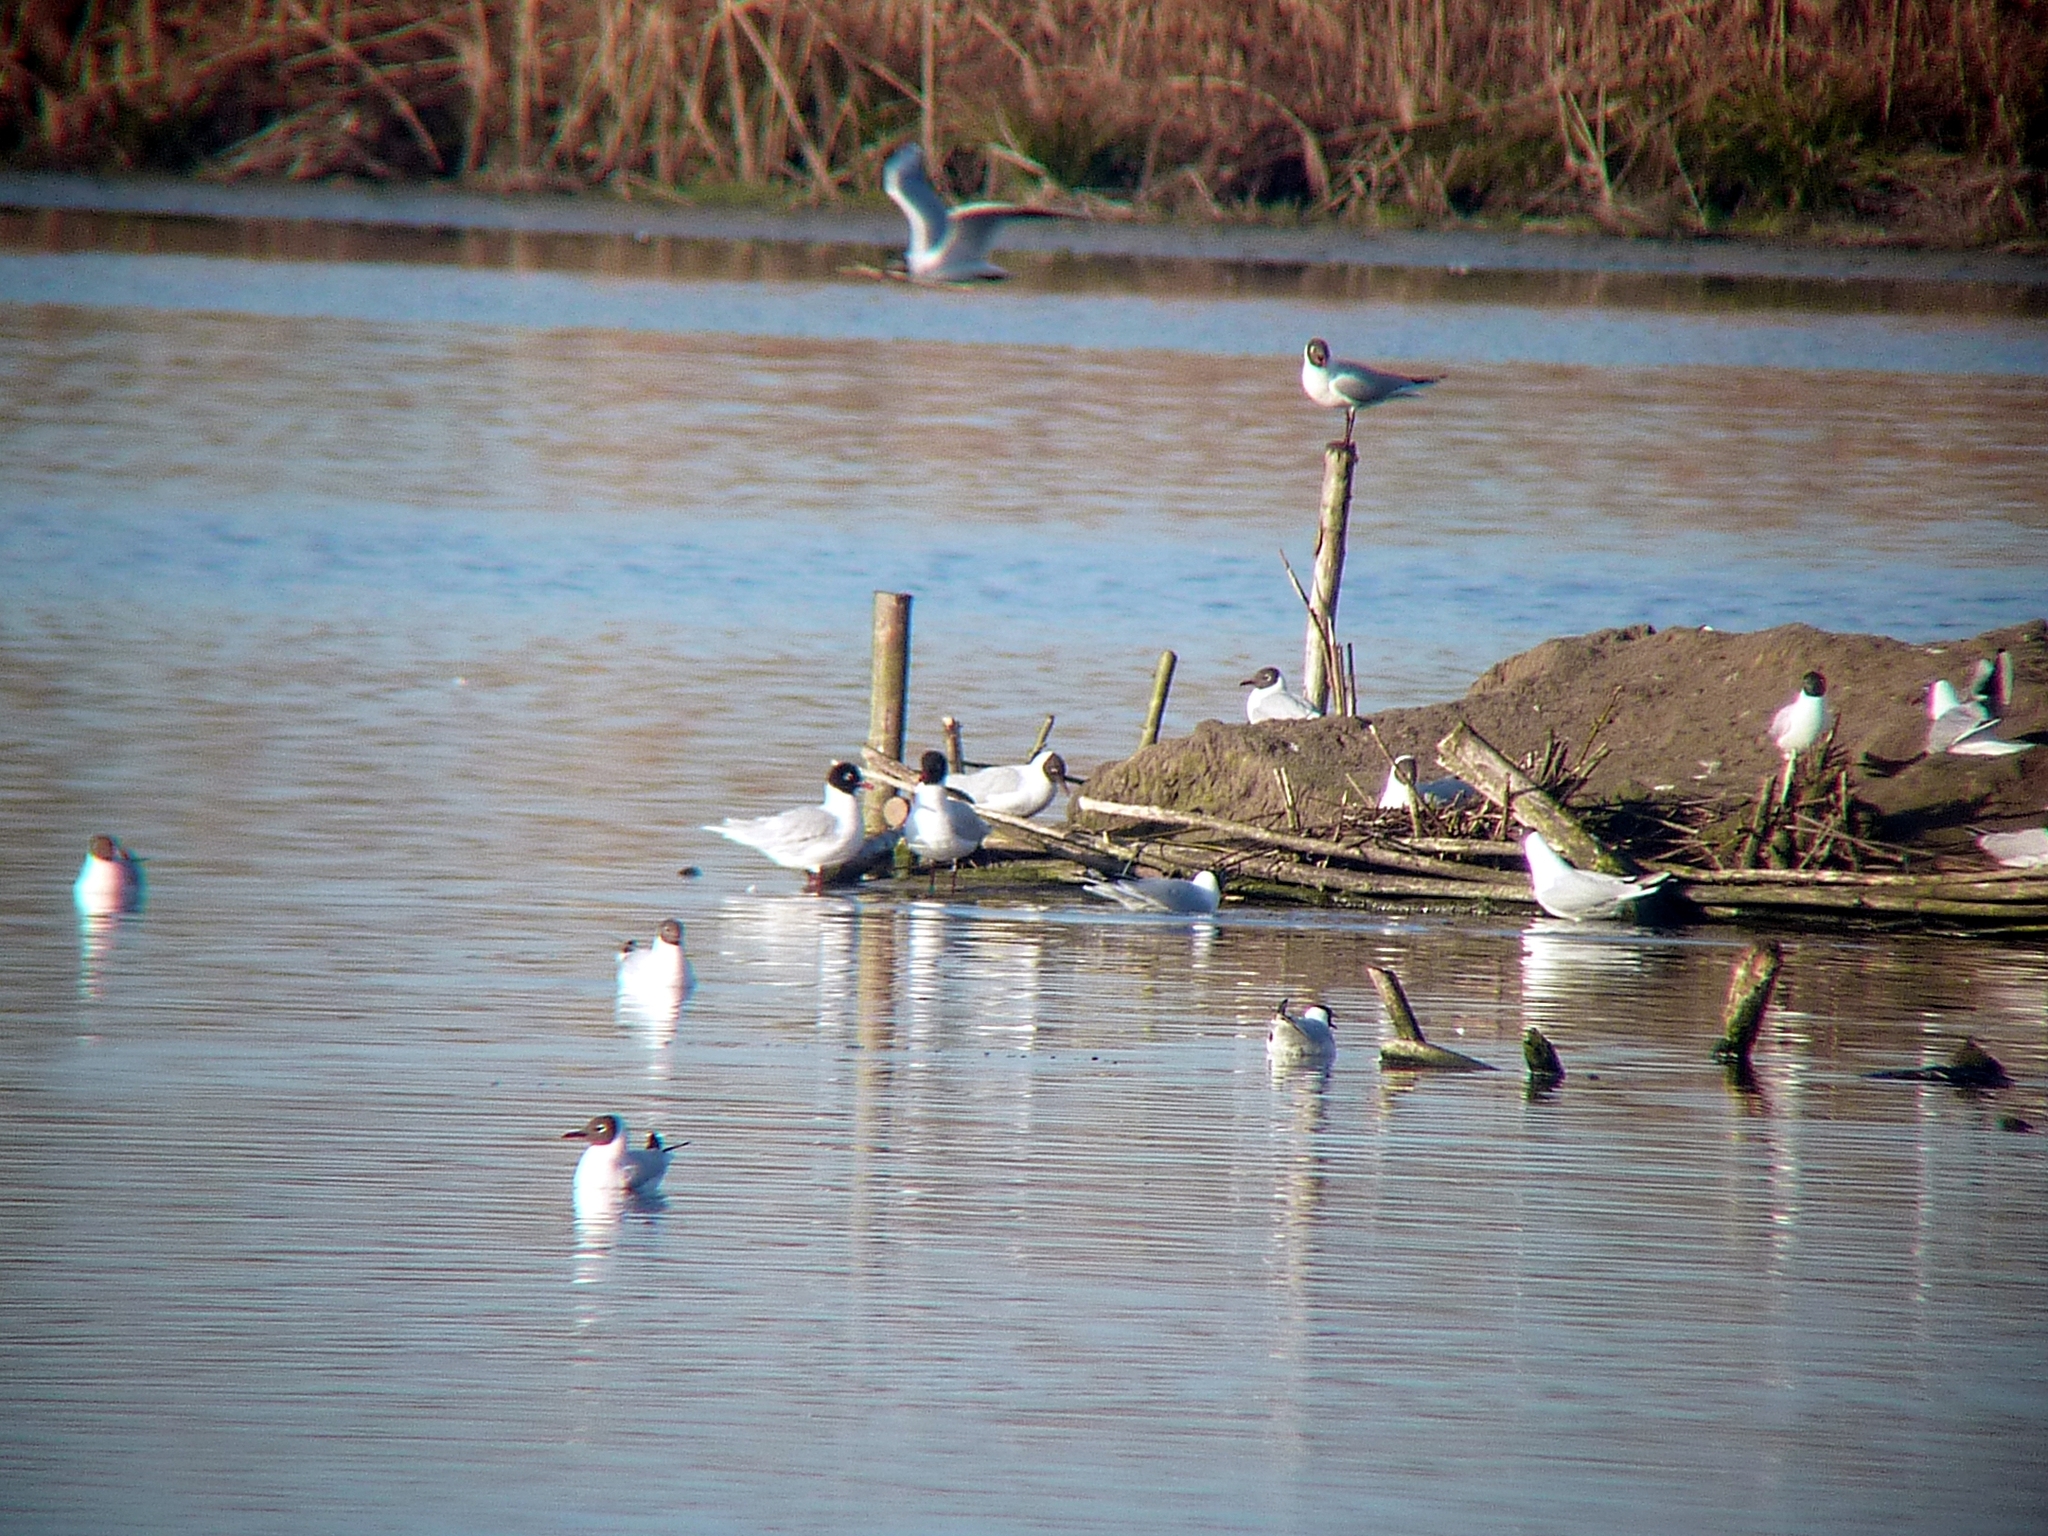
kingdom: Animalia
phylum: Chordata
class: Aves
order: Charadriiformes
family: Laridae
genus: Ichthyaetus
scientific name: Ichthyaetus melanocephalus
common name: Mediterranean gull
